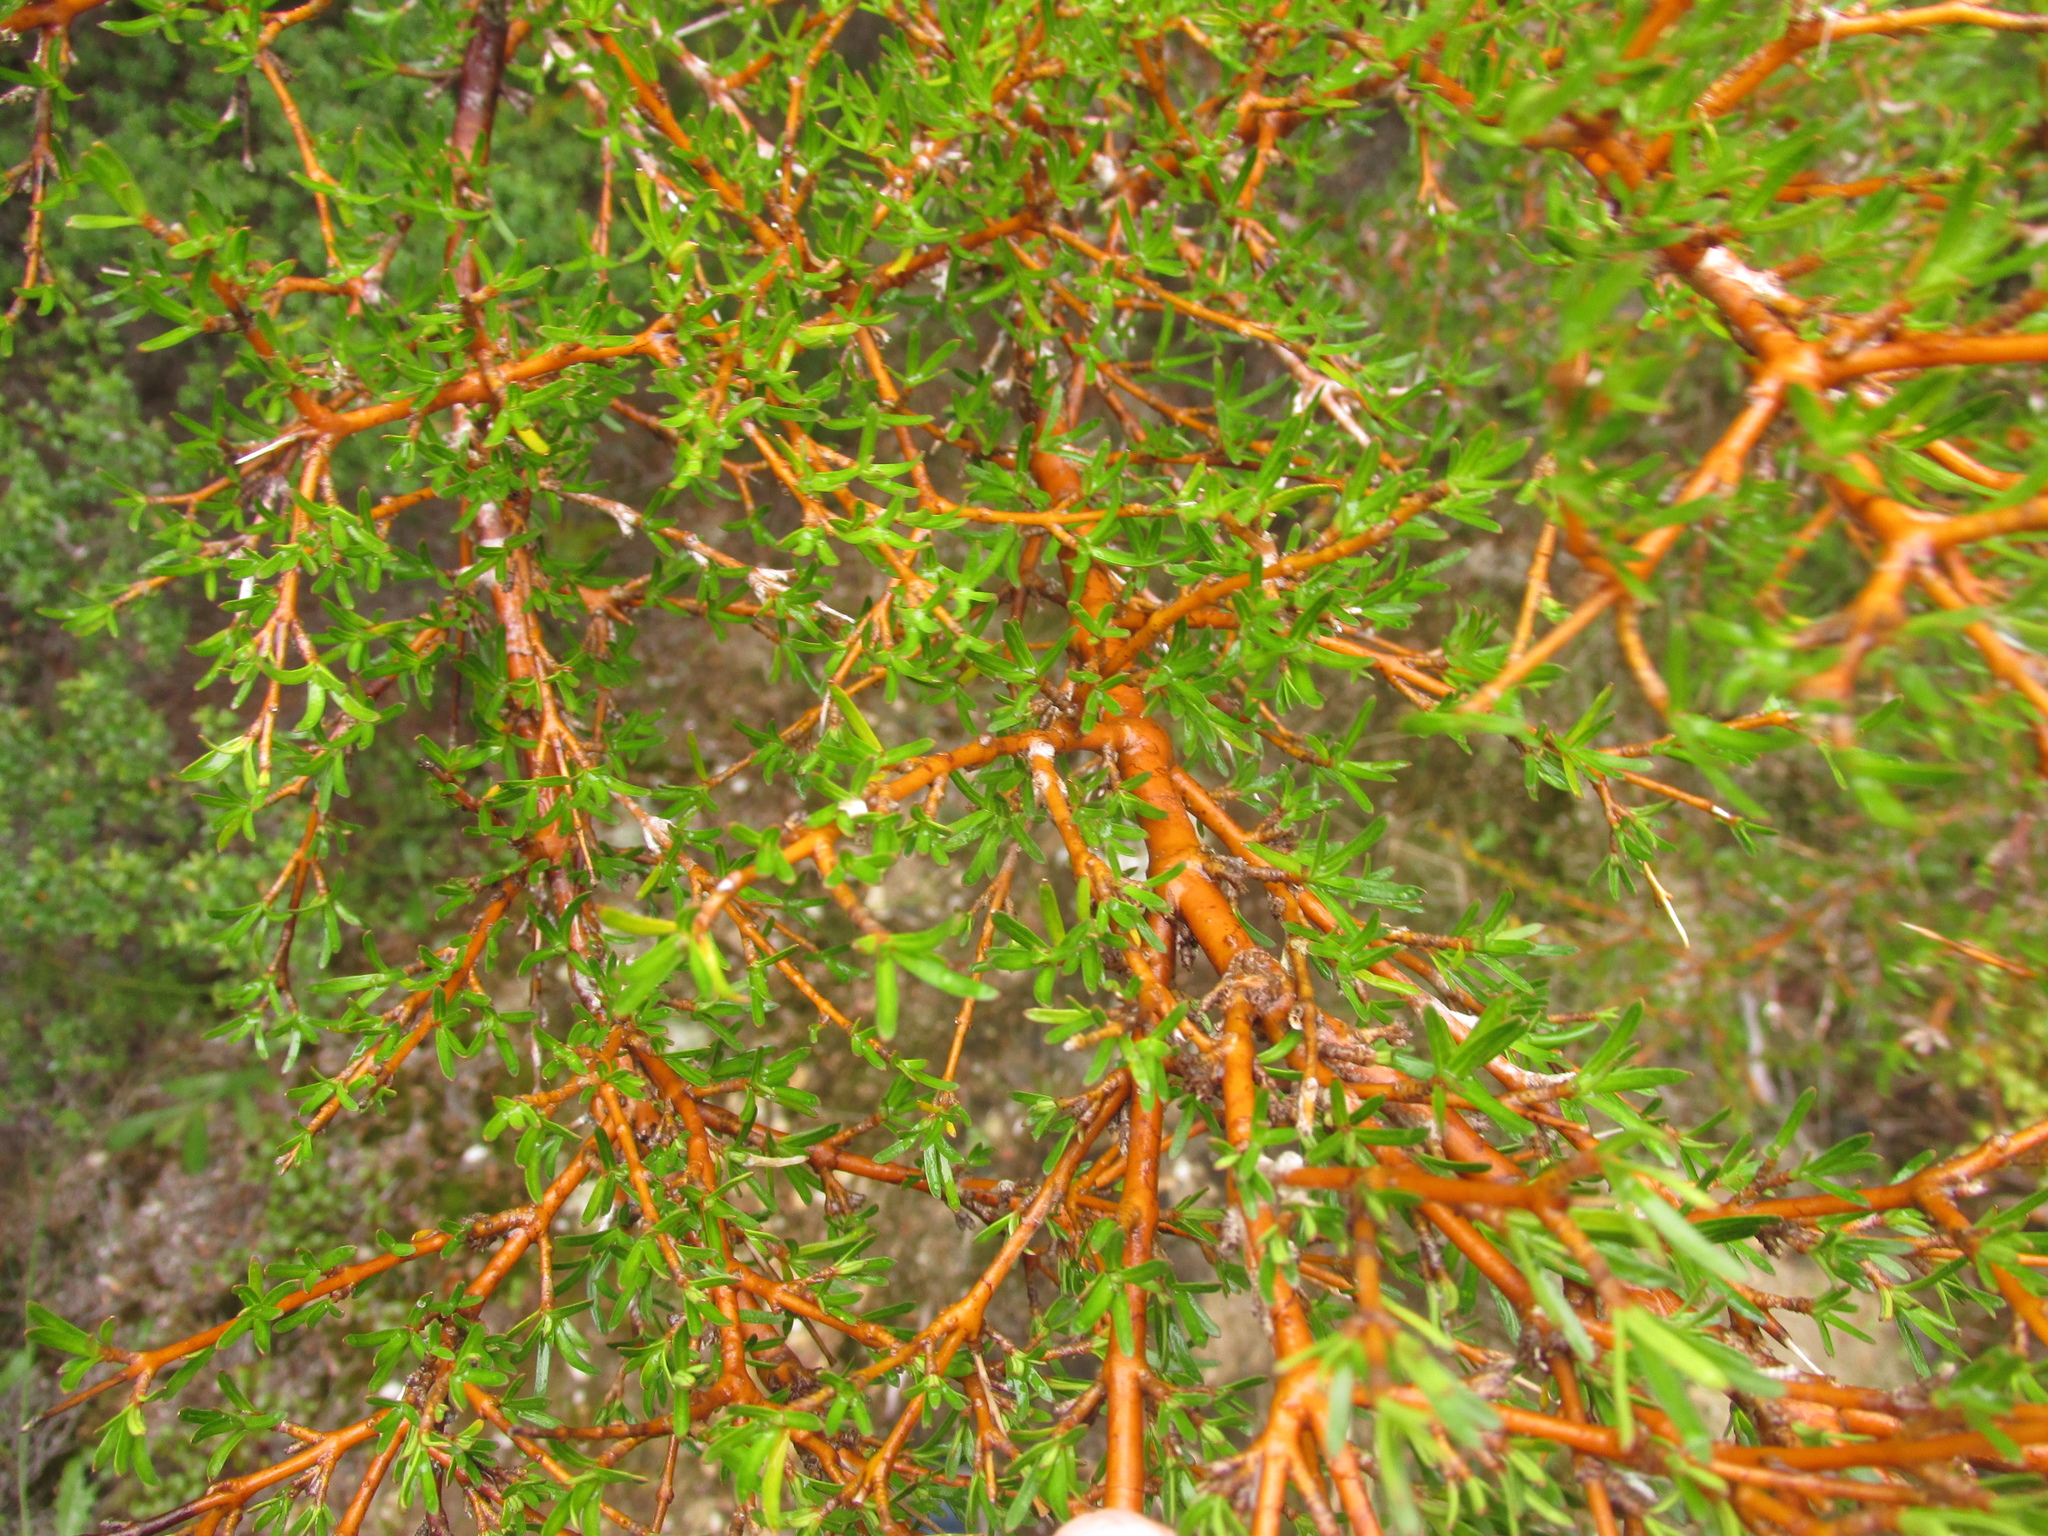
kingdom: Plantae
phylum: Tracheophyta
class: Magnoliopsida
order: Gentianales
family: Rubiaceae
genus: Coprosma
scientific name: Coprosma rugosa
